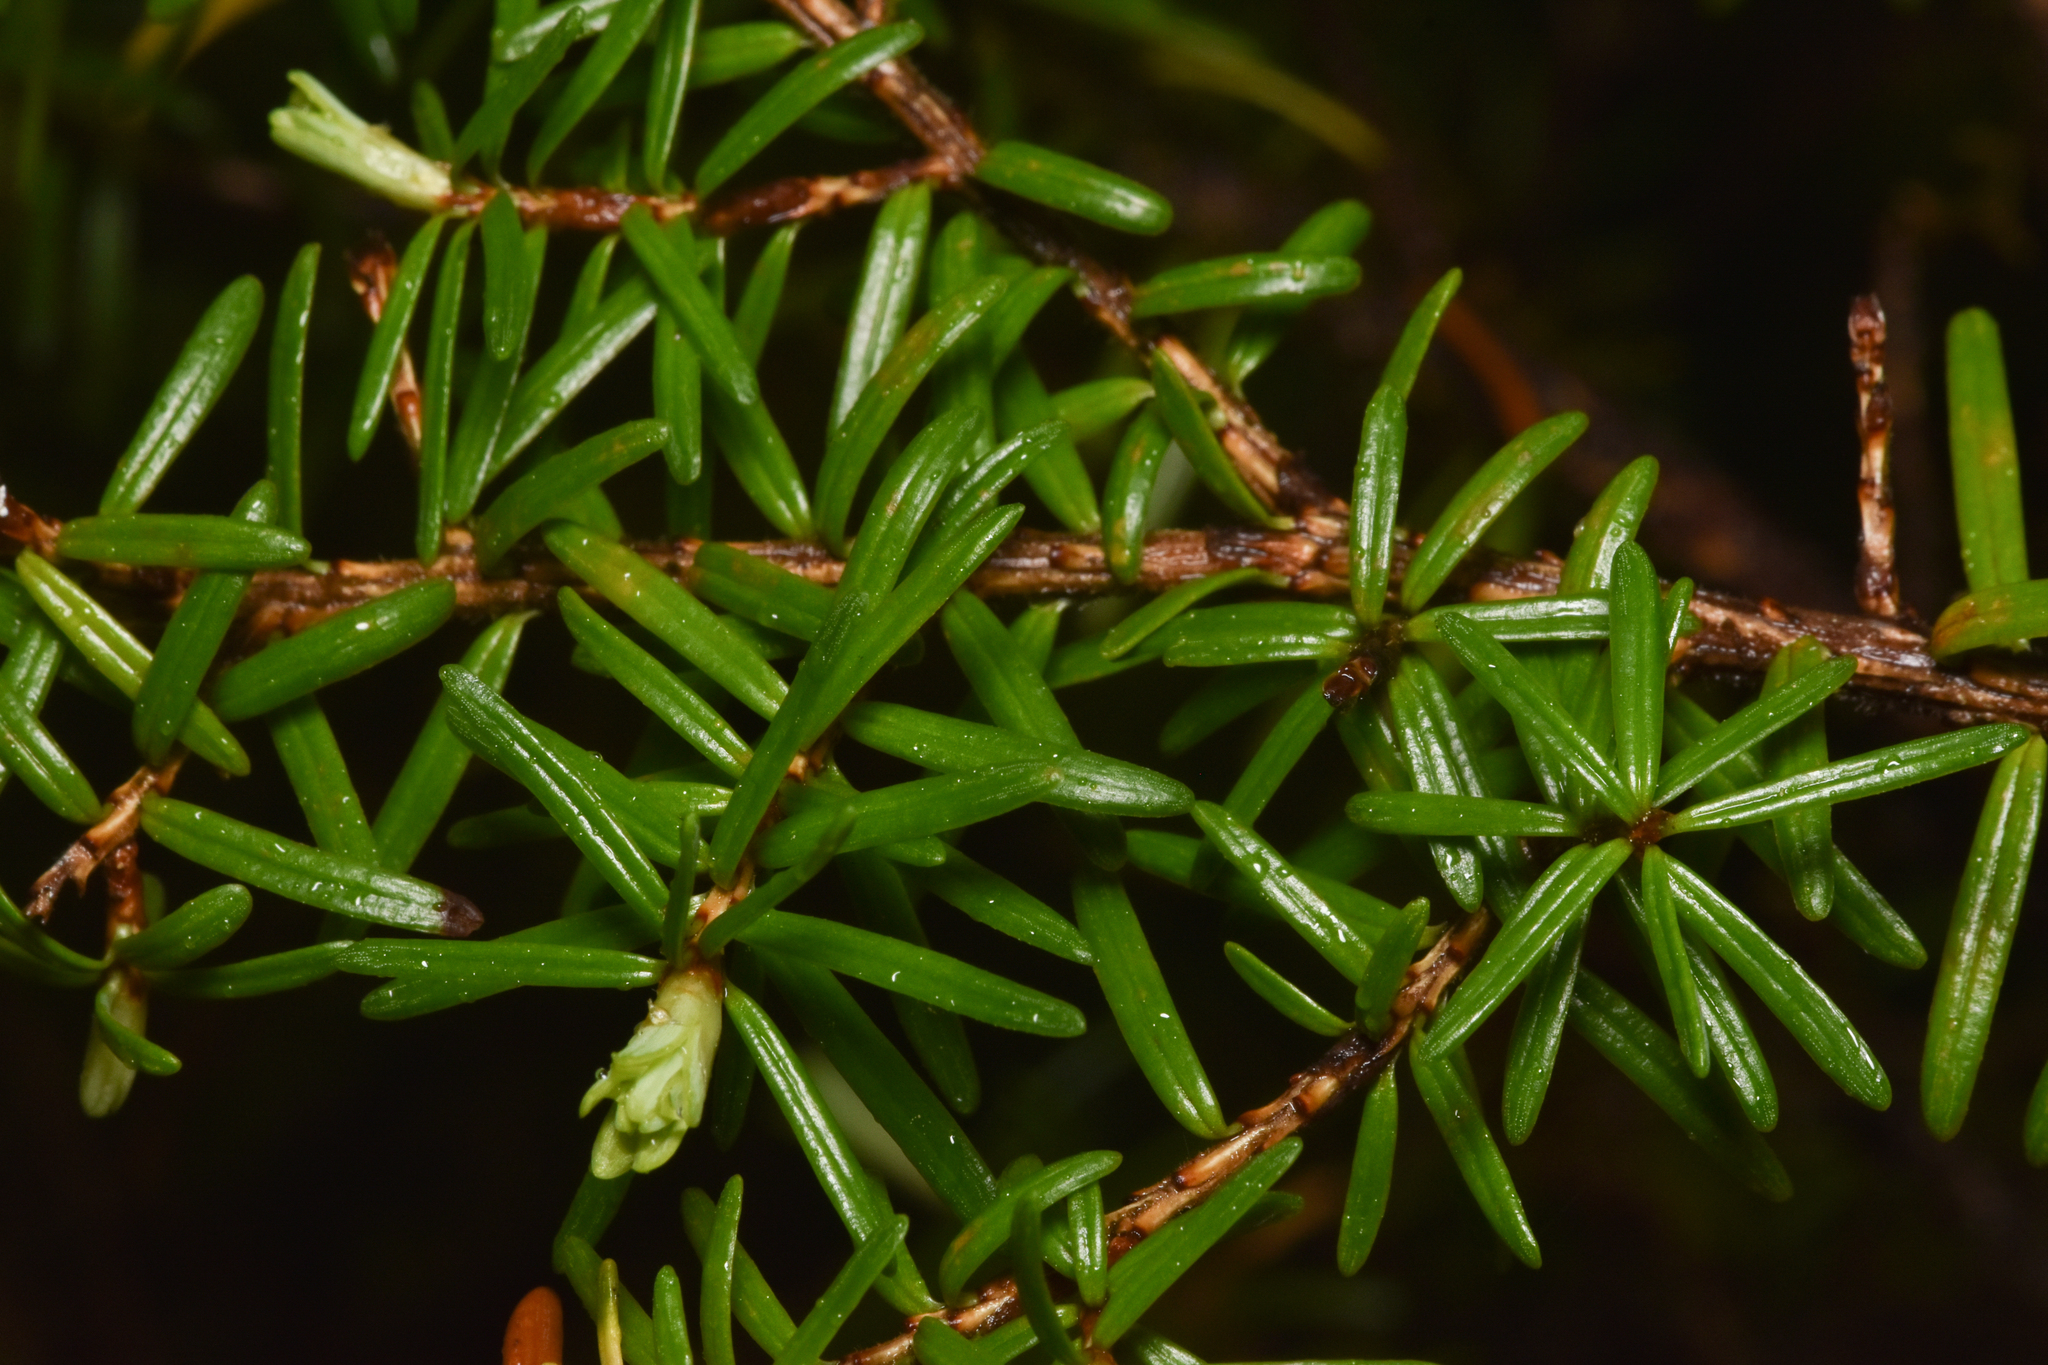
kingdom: Plantae
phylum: Tracheophyta
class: Pinopsida
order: Pinales
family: Pinaceae
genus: Tsuga
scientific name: Tsuga heterophylla
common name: Western hemlock
